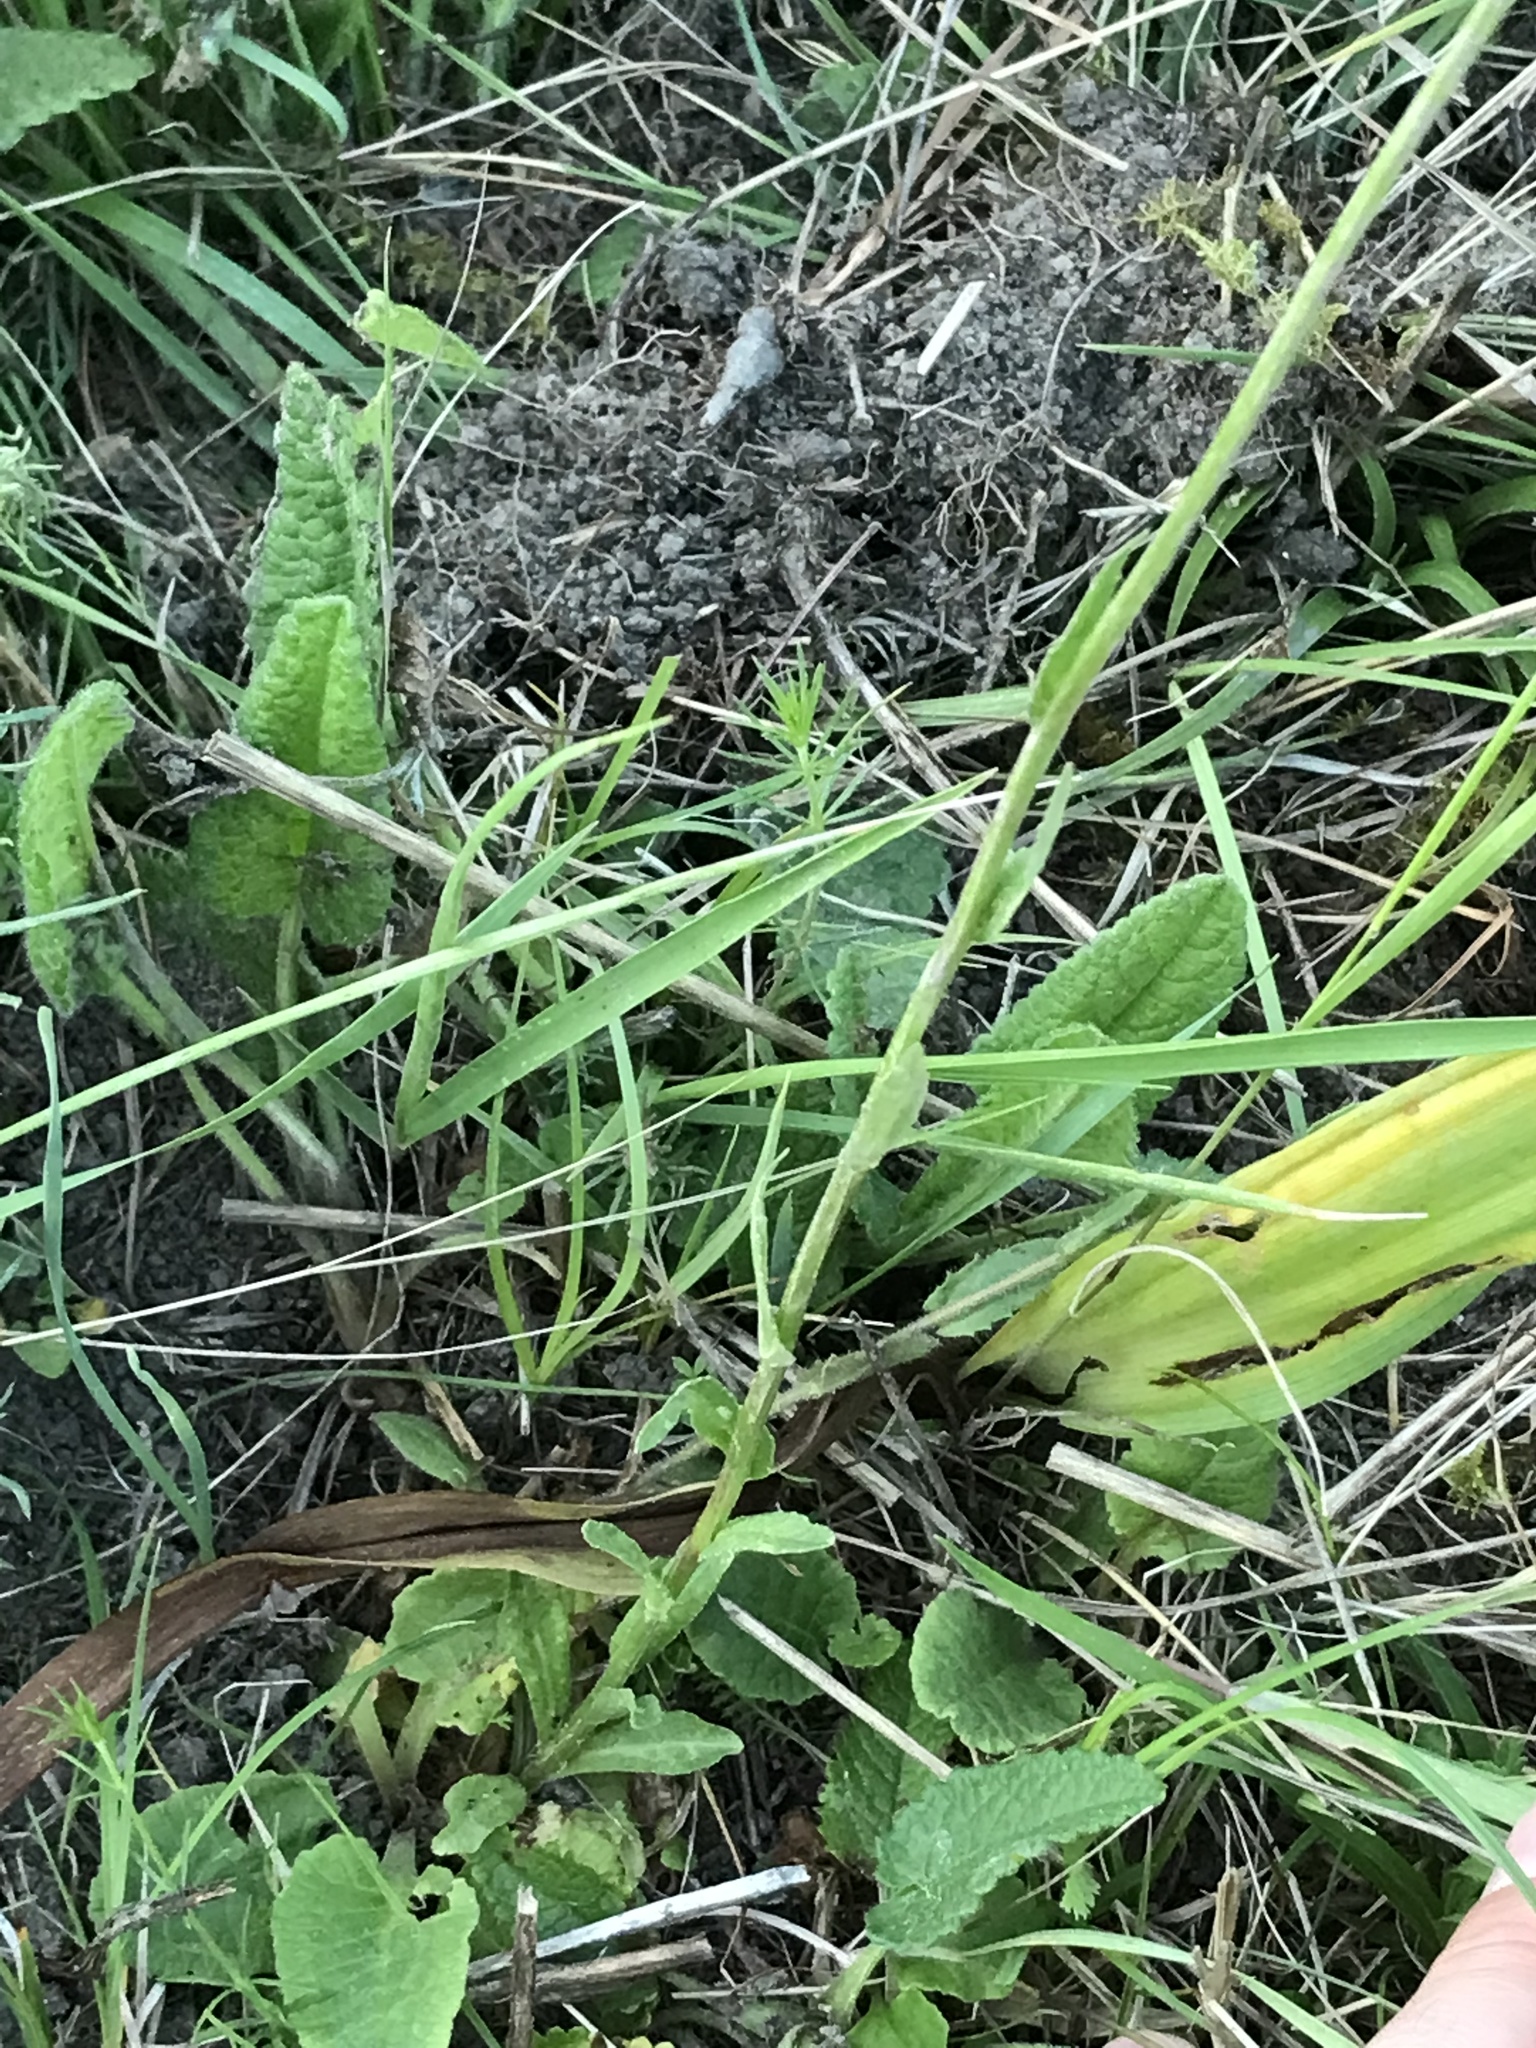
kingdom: Plantae
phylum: Tracheophyta
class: Magnoliopsida
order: Asterales
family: Campanulaceae
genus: Campanula
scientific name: Campanula patula
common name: Spreading bellflower
